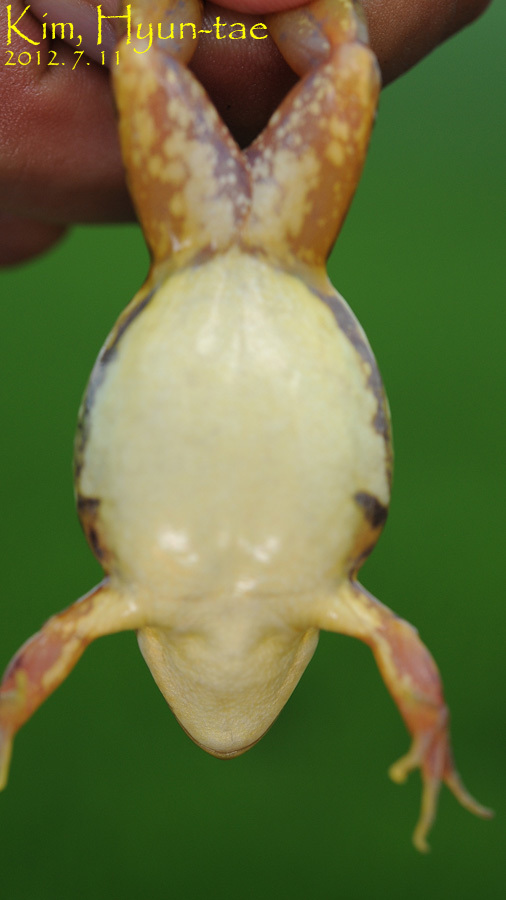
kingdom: Animalia
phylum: Chordata
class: Amphibia
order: Anura
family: Ranidae
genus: Pelophylax
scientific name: Pelophylax chosenicus
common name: Gold-spotted pond frog
